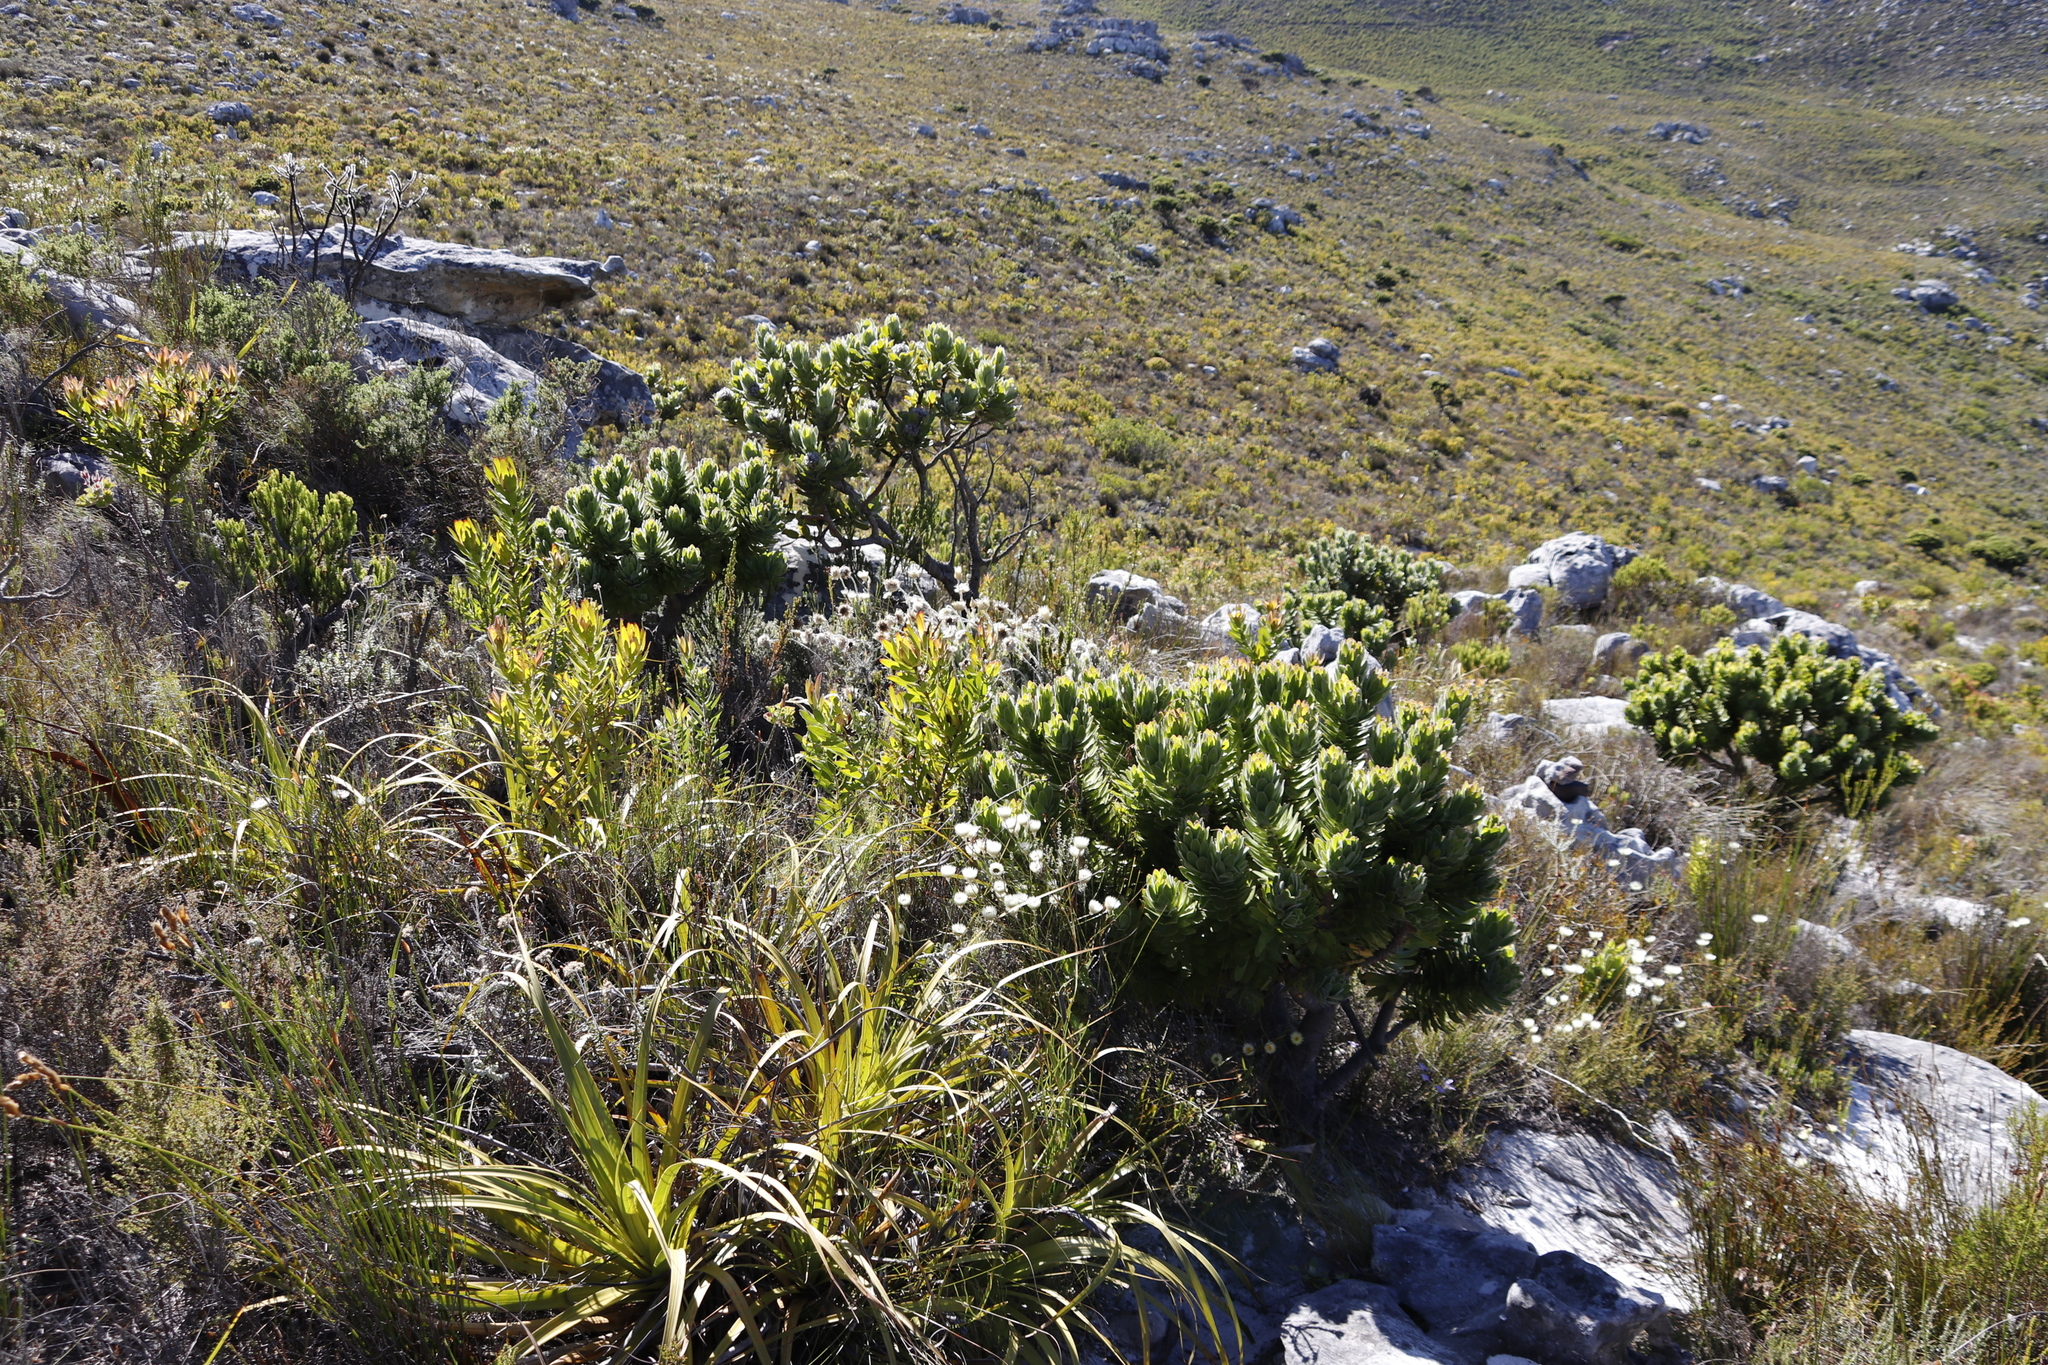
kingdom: Plantae
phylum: Tracheophyta
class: Magnoliopsida
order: Proteales
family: Proteaceae
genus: Mimetes
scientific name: Mimetes fimbriifolius
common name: Fringed bottlebrush
